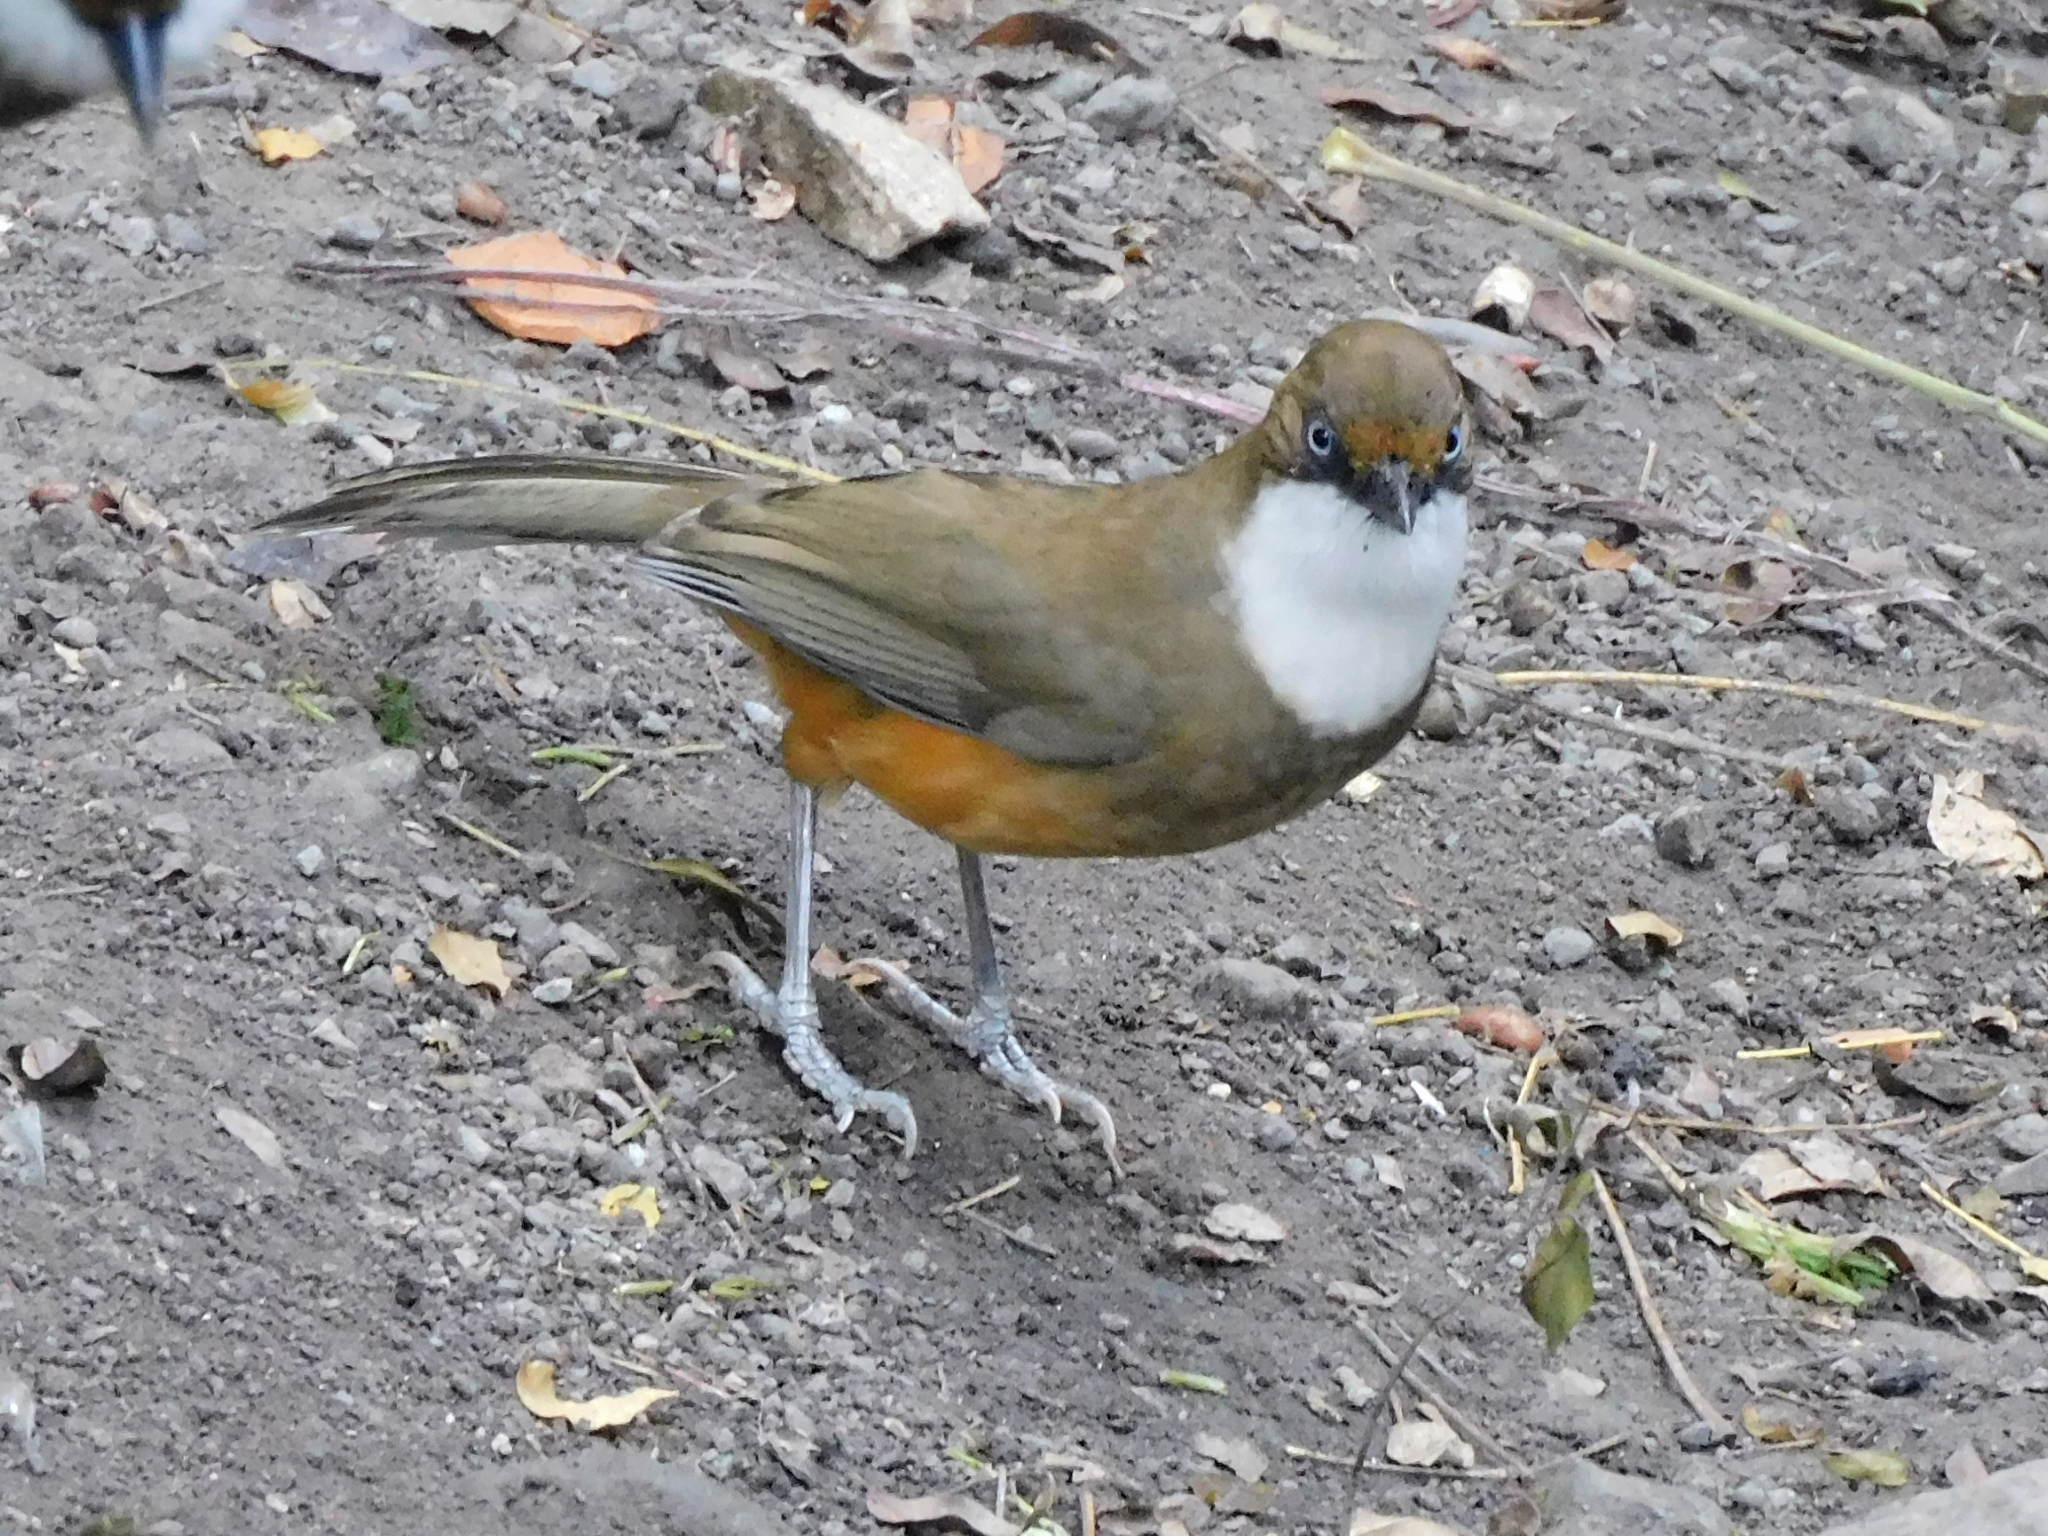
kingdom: Animalia
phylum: Chordata
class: Aves
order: Passeriformes
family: Leiothrichidae
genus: Garrulax
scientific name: Garrulax albogularis
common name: White-throated laughingthrush
